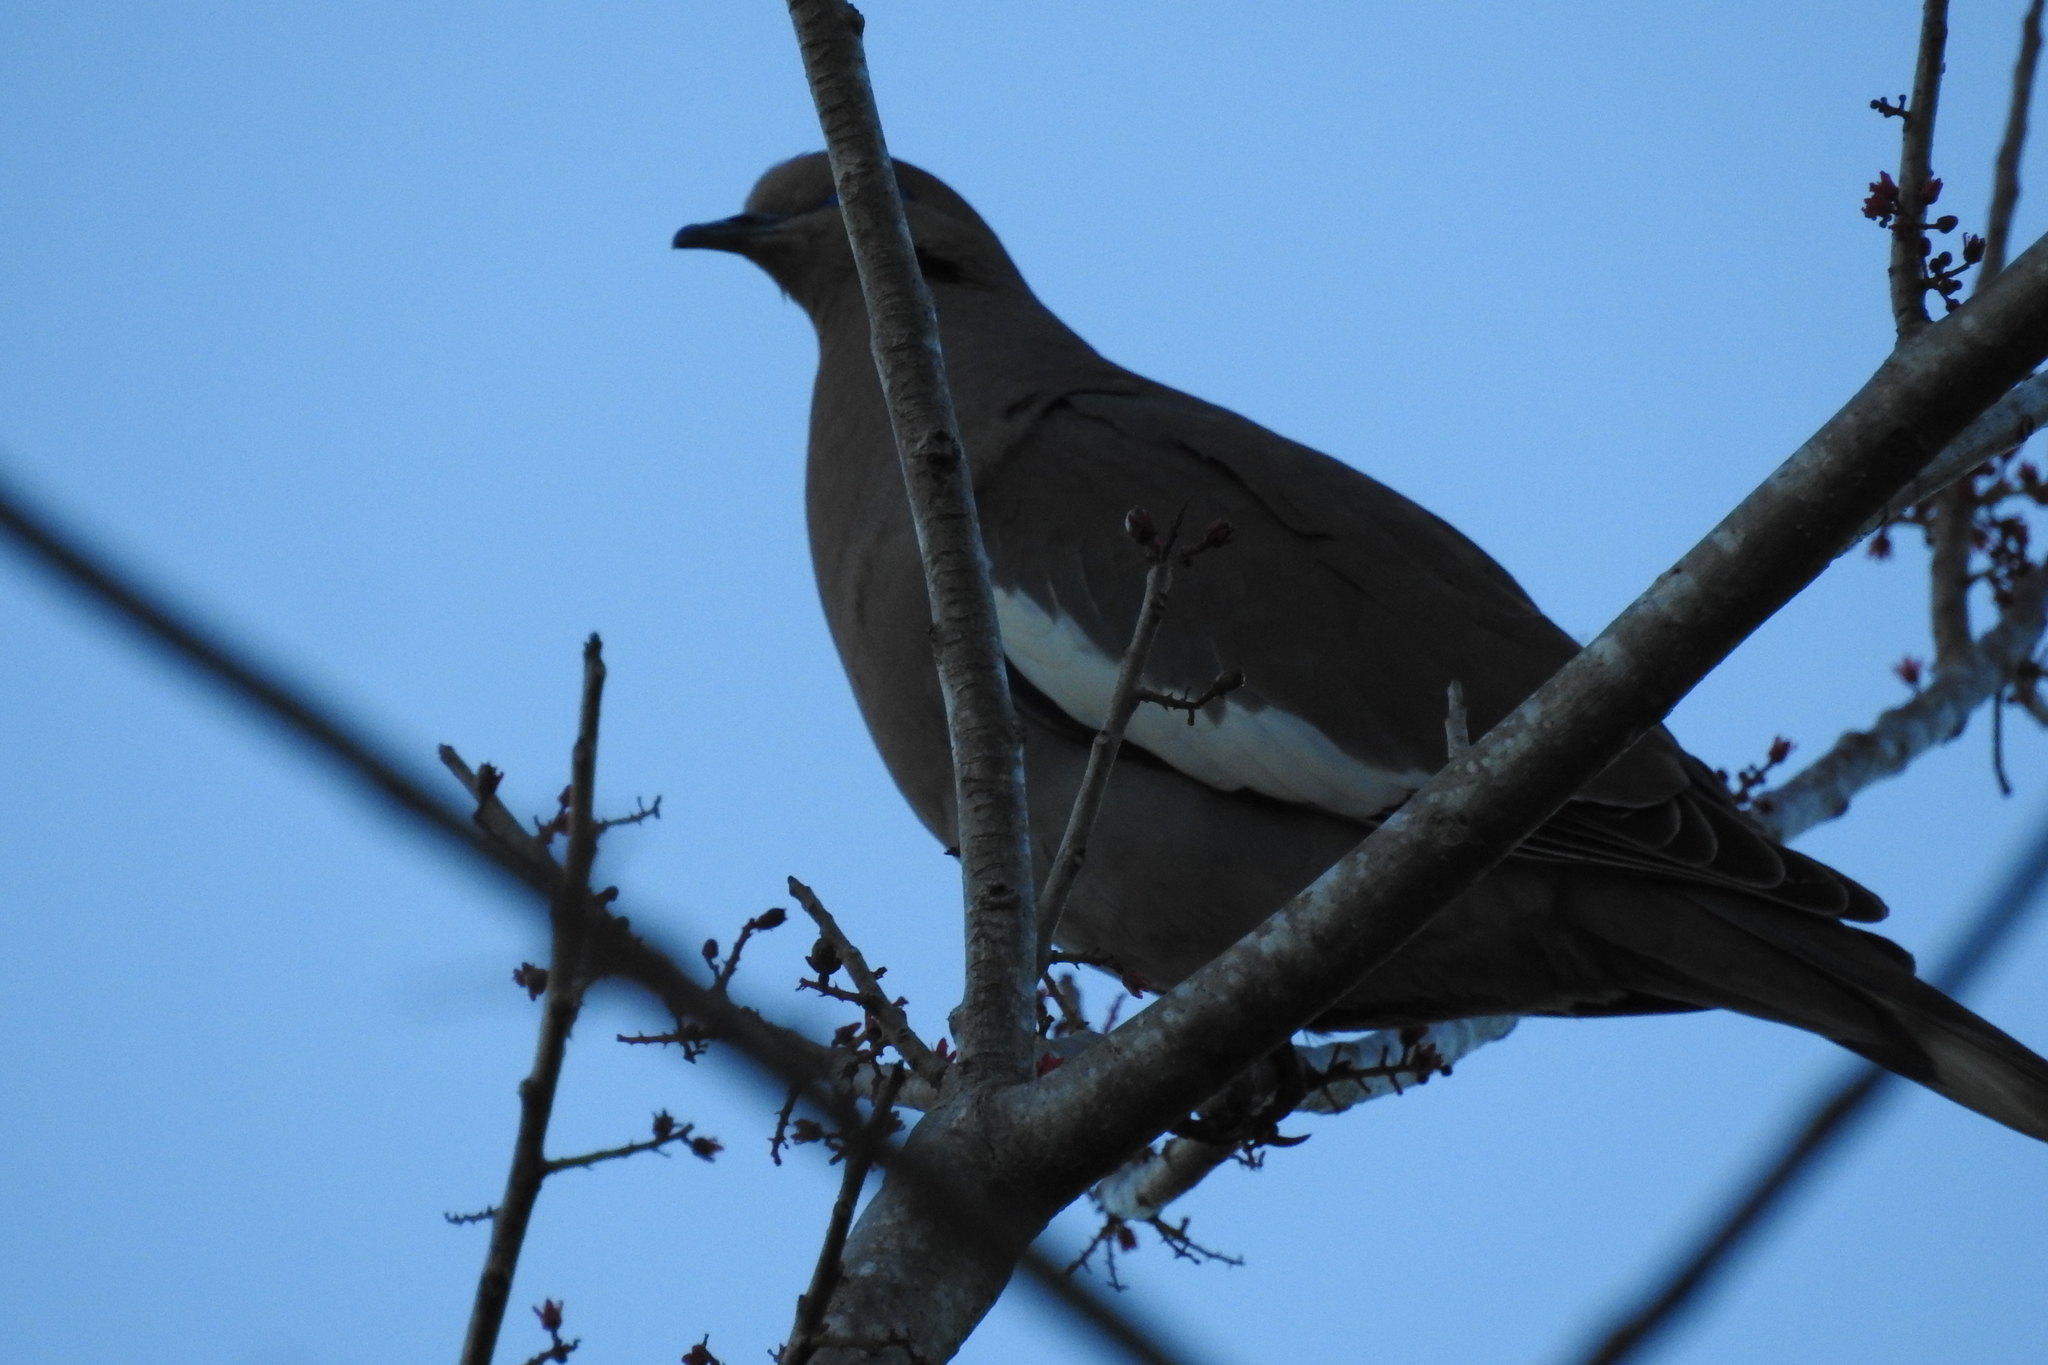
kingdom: Animalia
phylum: Chordata
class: Aves
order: Columbiformes
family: Columbidae
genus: Zenaida
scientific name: Zenaida asiatica
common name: White-winged dove
